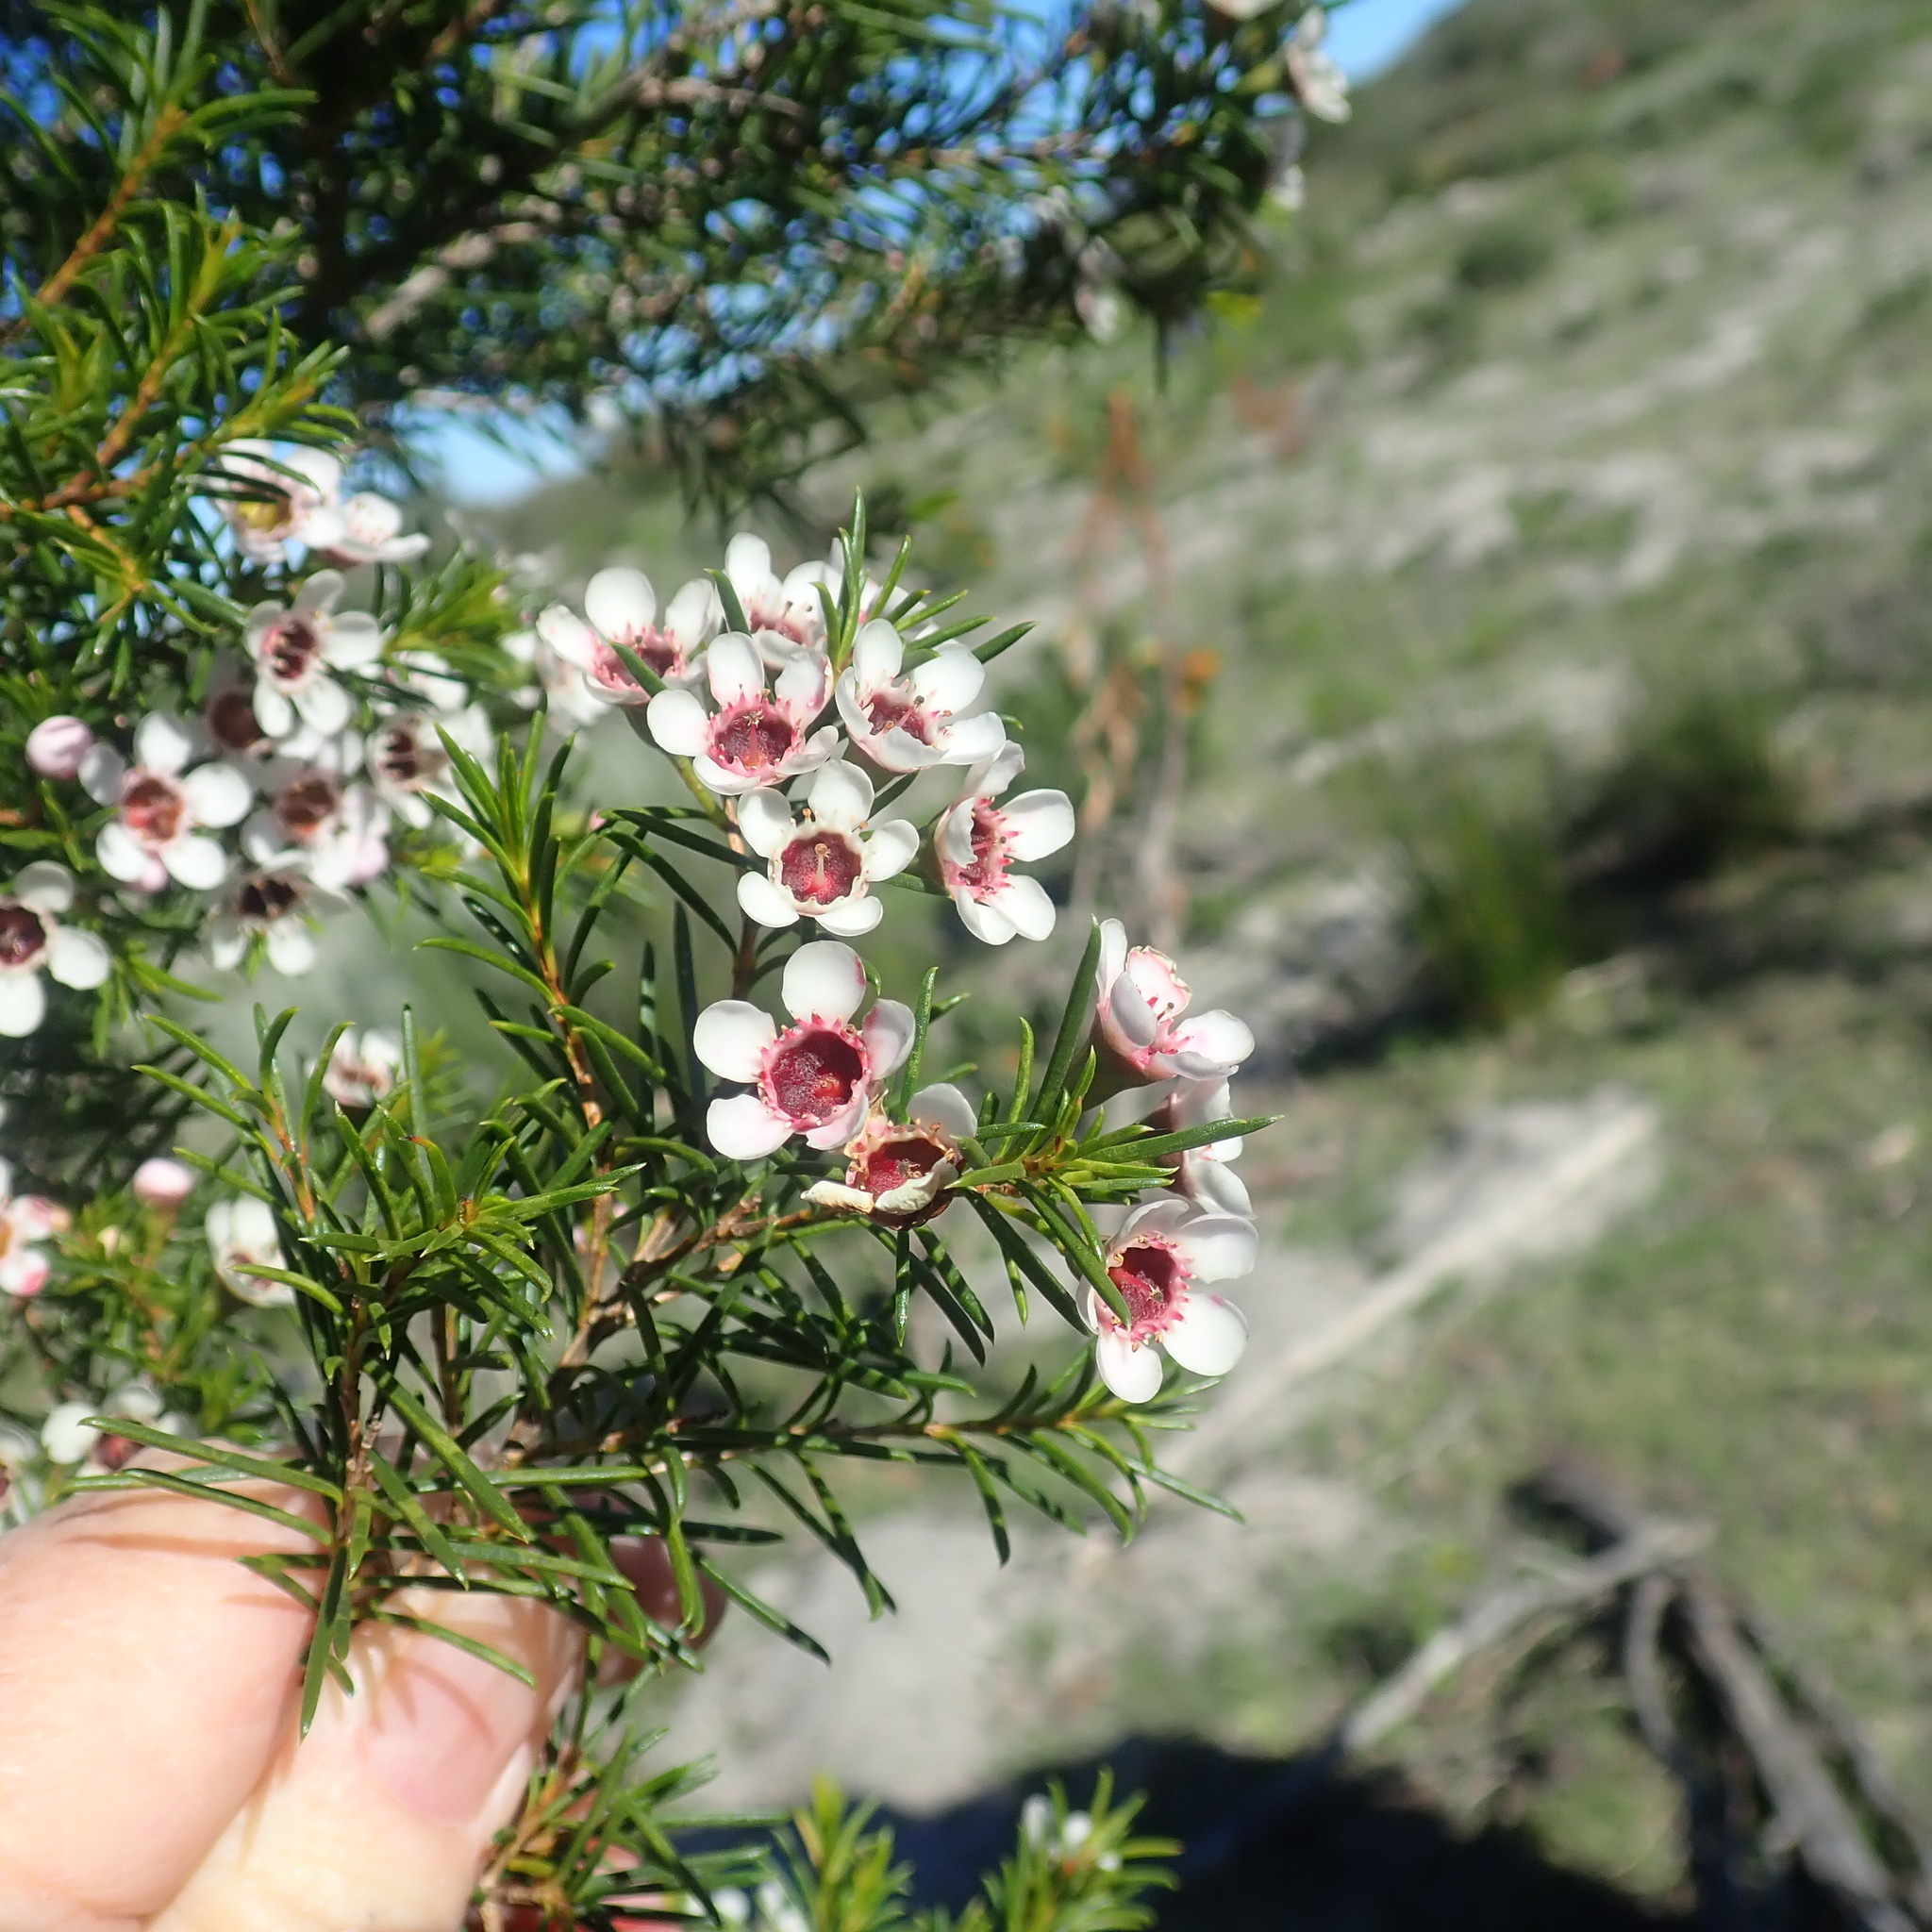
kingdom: Plantae
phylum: Tracheophyta
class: Magnoliopsida
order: Myrtales
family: Myrtaceae
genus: Chamelaucium
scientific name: Chamelaucium uncinatum
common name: Geraldton wax
